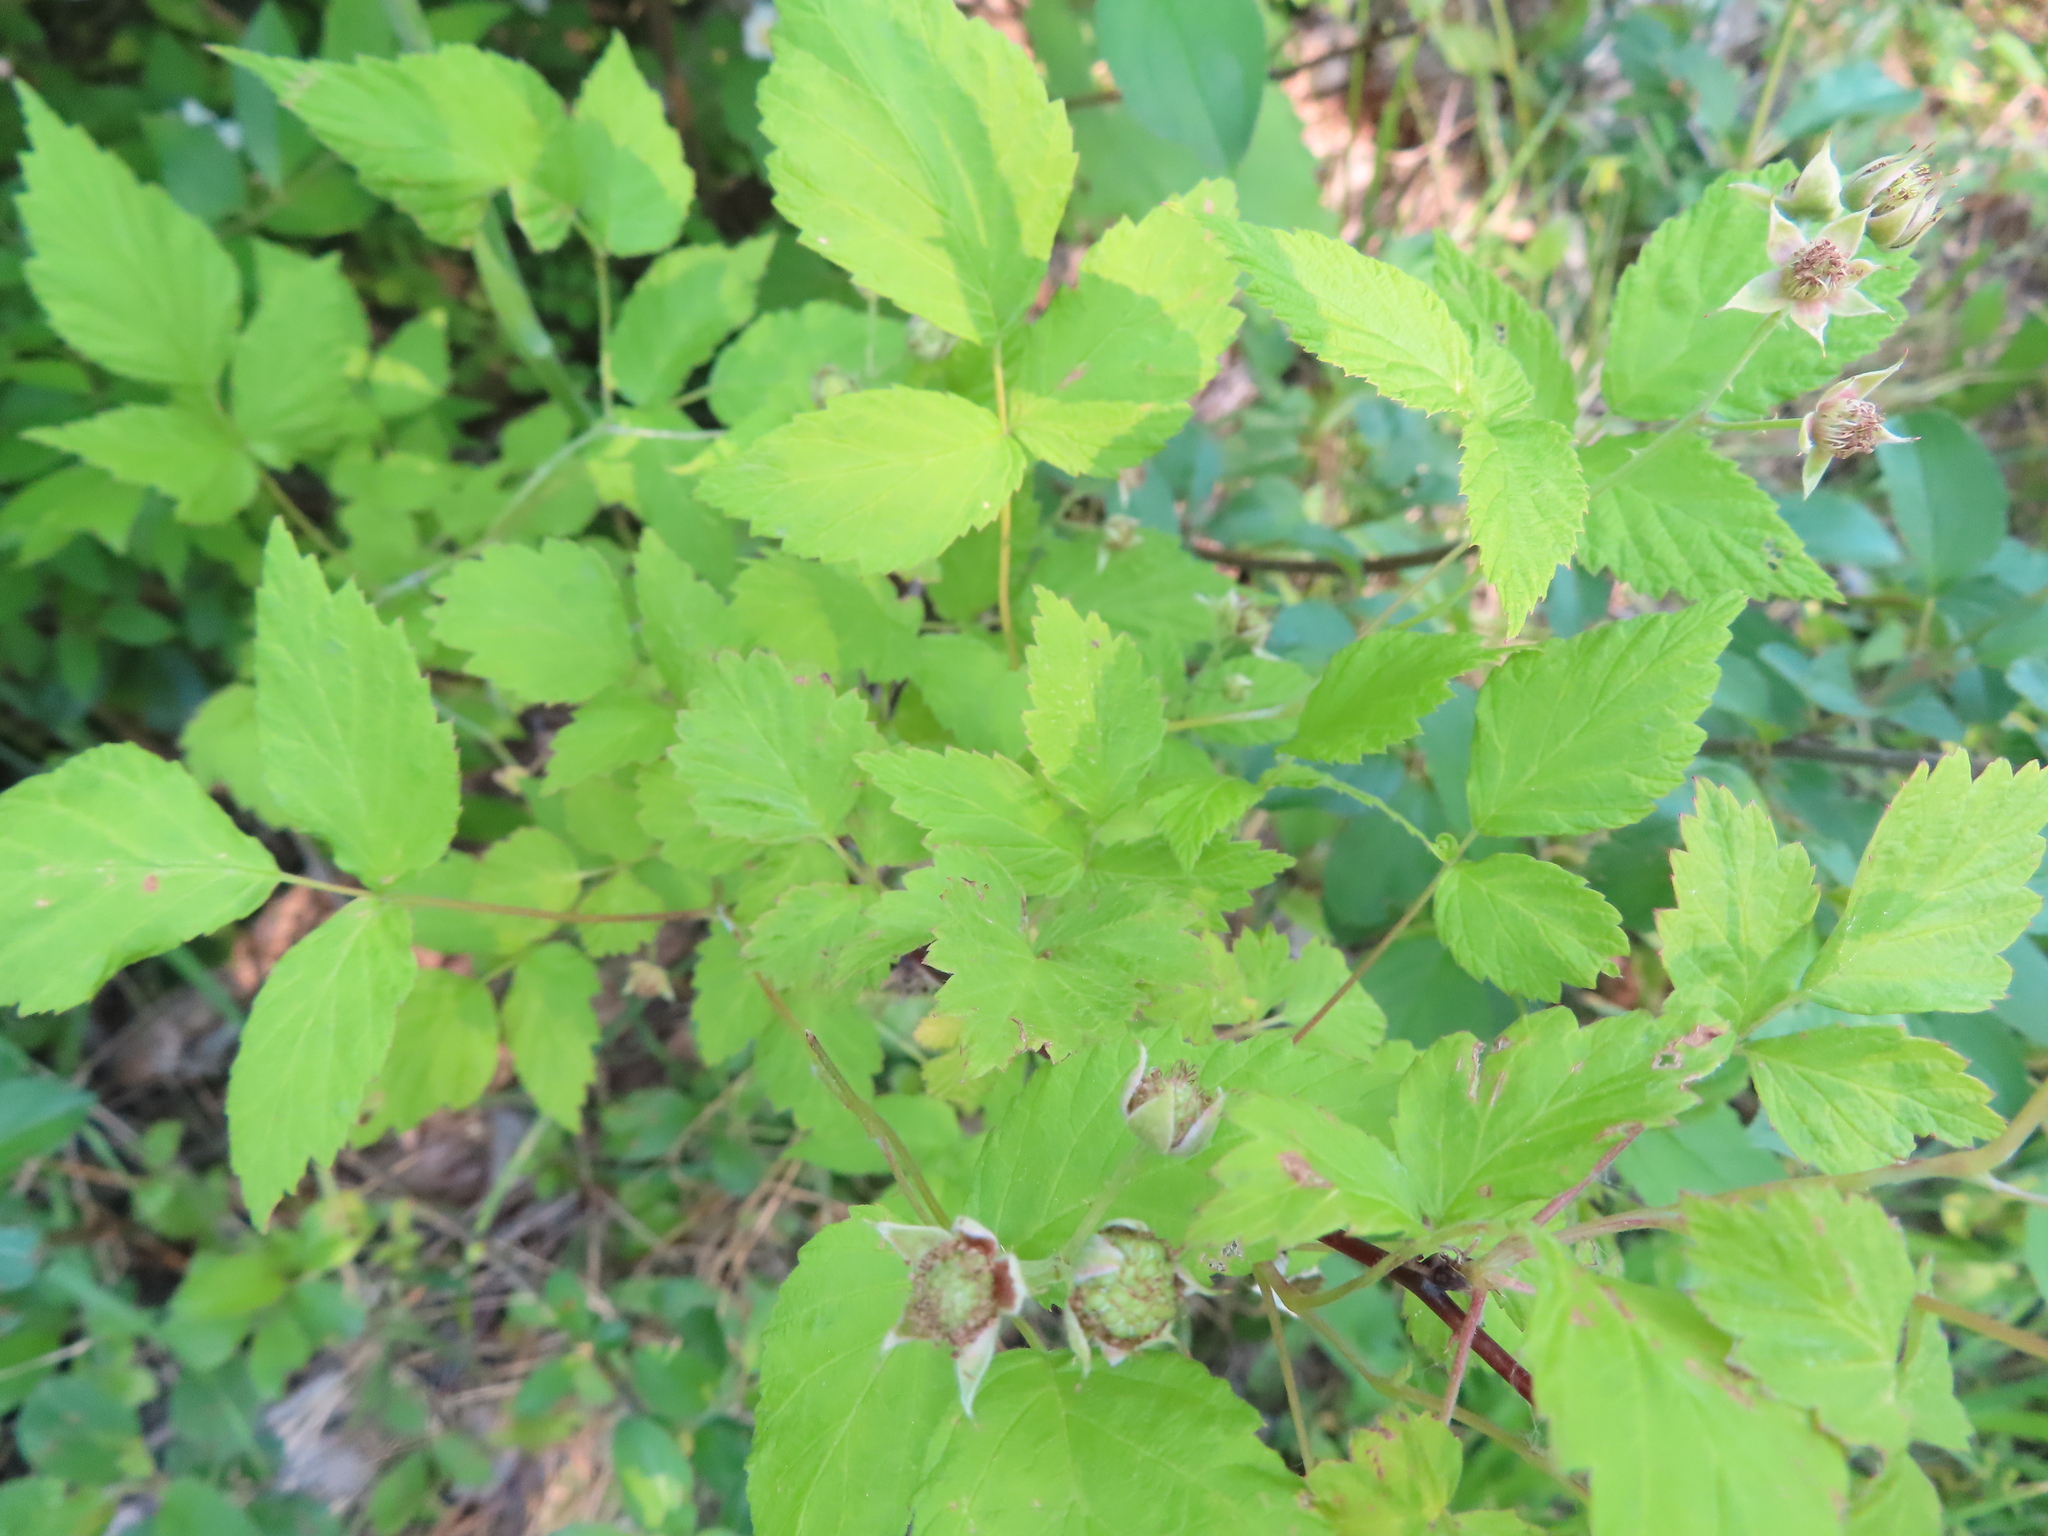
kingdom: Plantae
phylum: Tracheophyta
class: Magnoliopsida
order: Rosales
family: Rosaceae
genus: Rubus
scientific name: Rubus occidentalis
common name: Black raspberry
